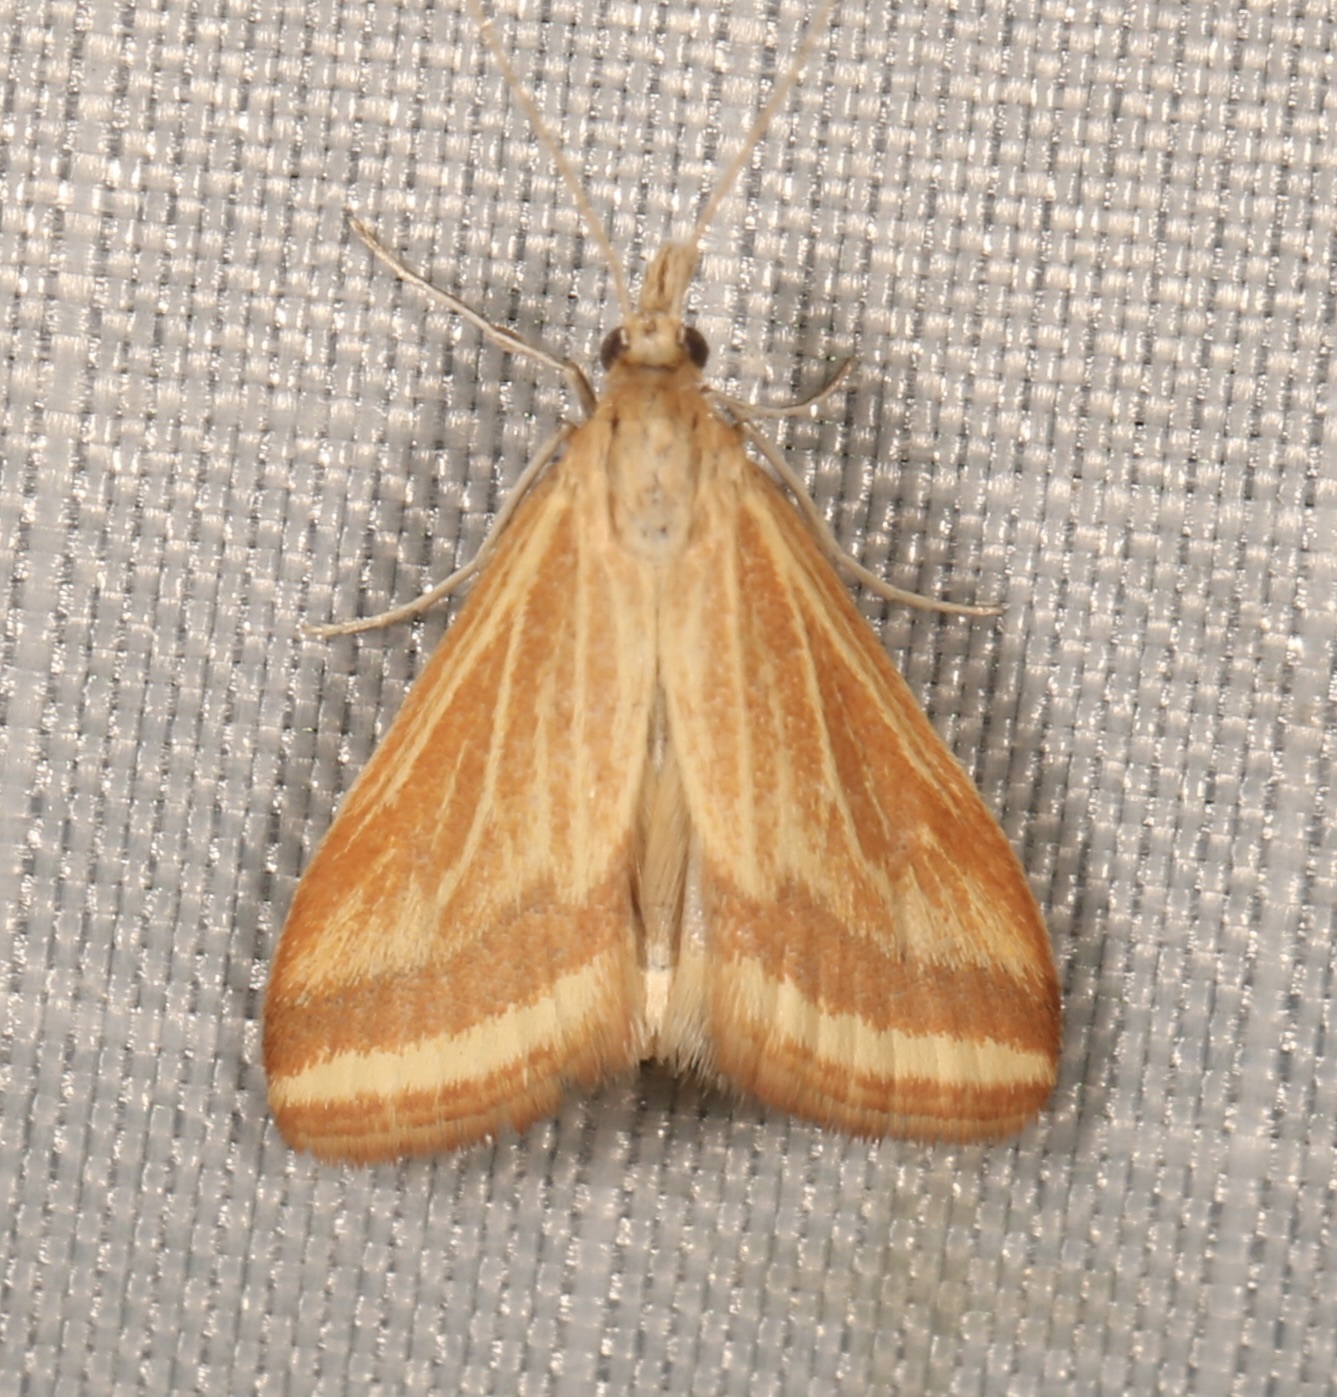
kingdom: Animalia
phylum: Arthropoda
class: Insecta
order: Lepidoptera
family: Crambidae
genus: Microtheoris
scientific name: Microtheoris ophionalis
